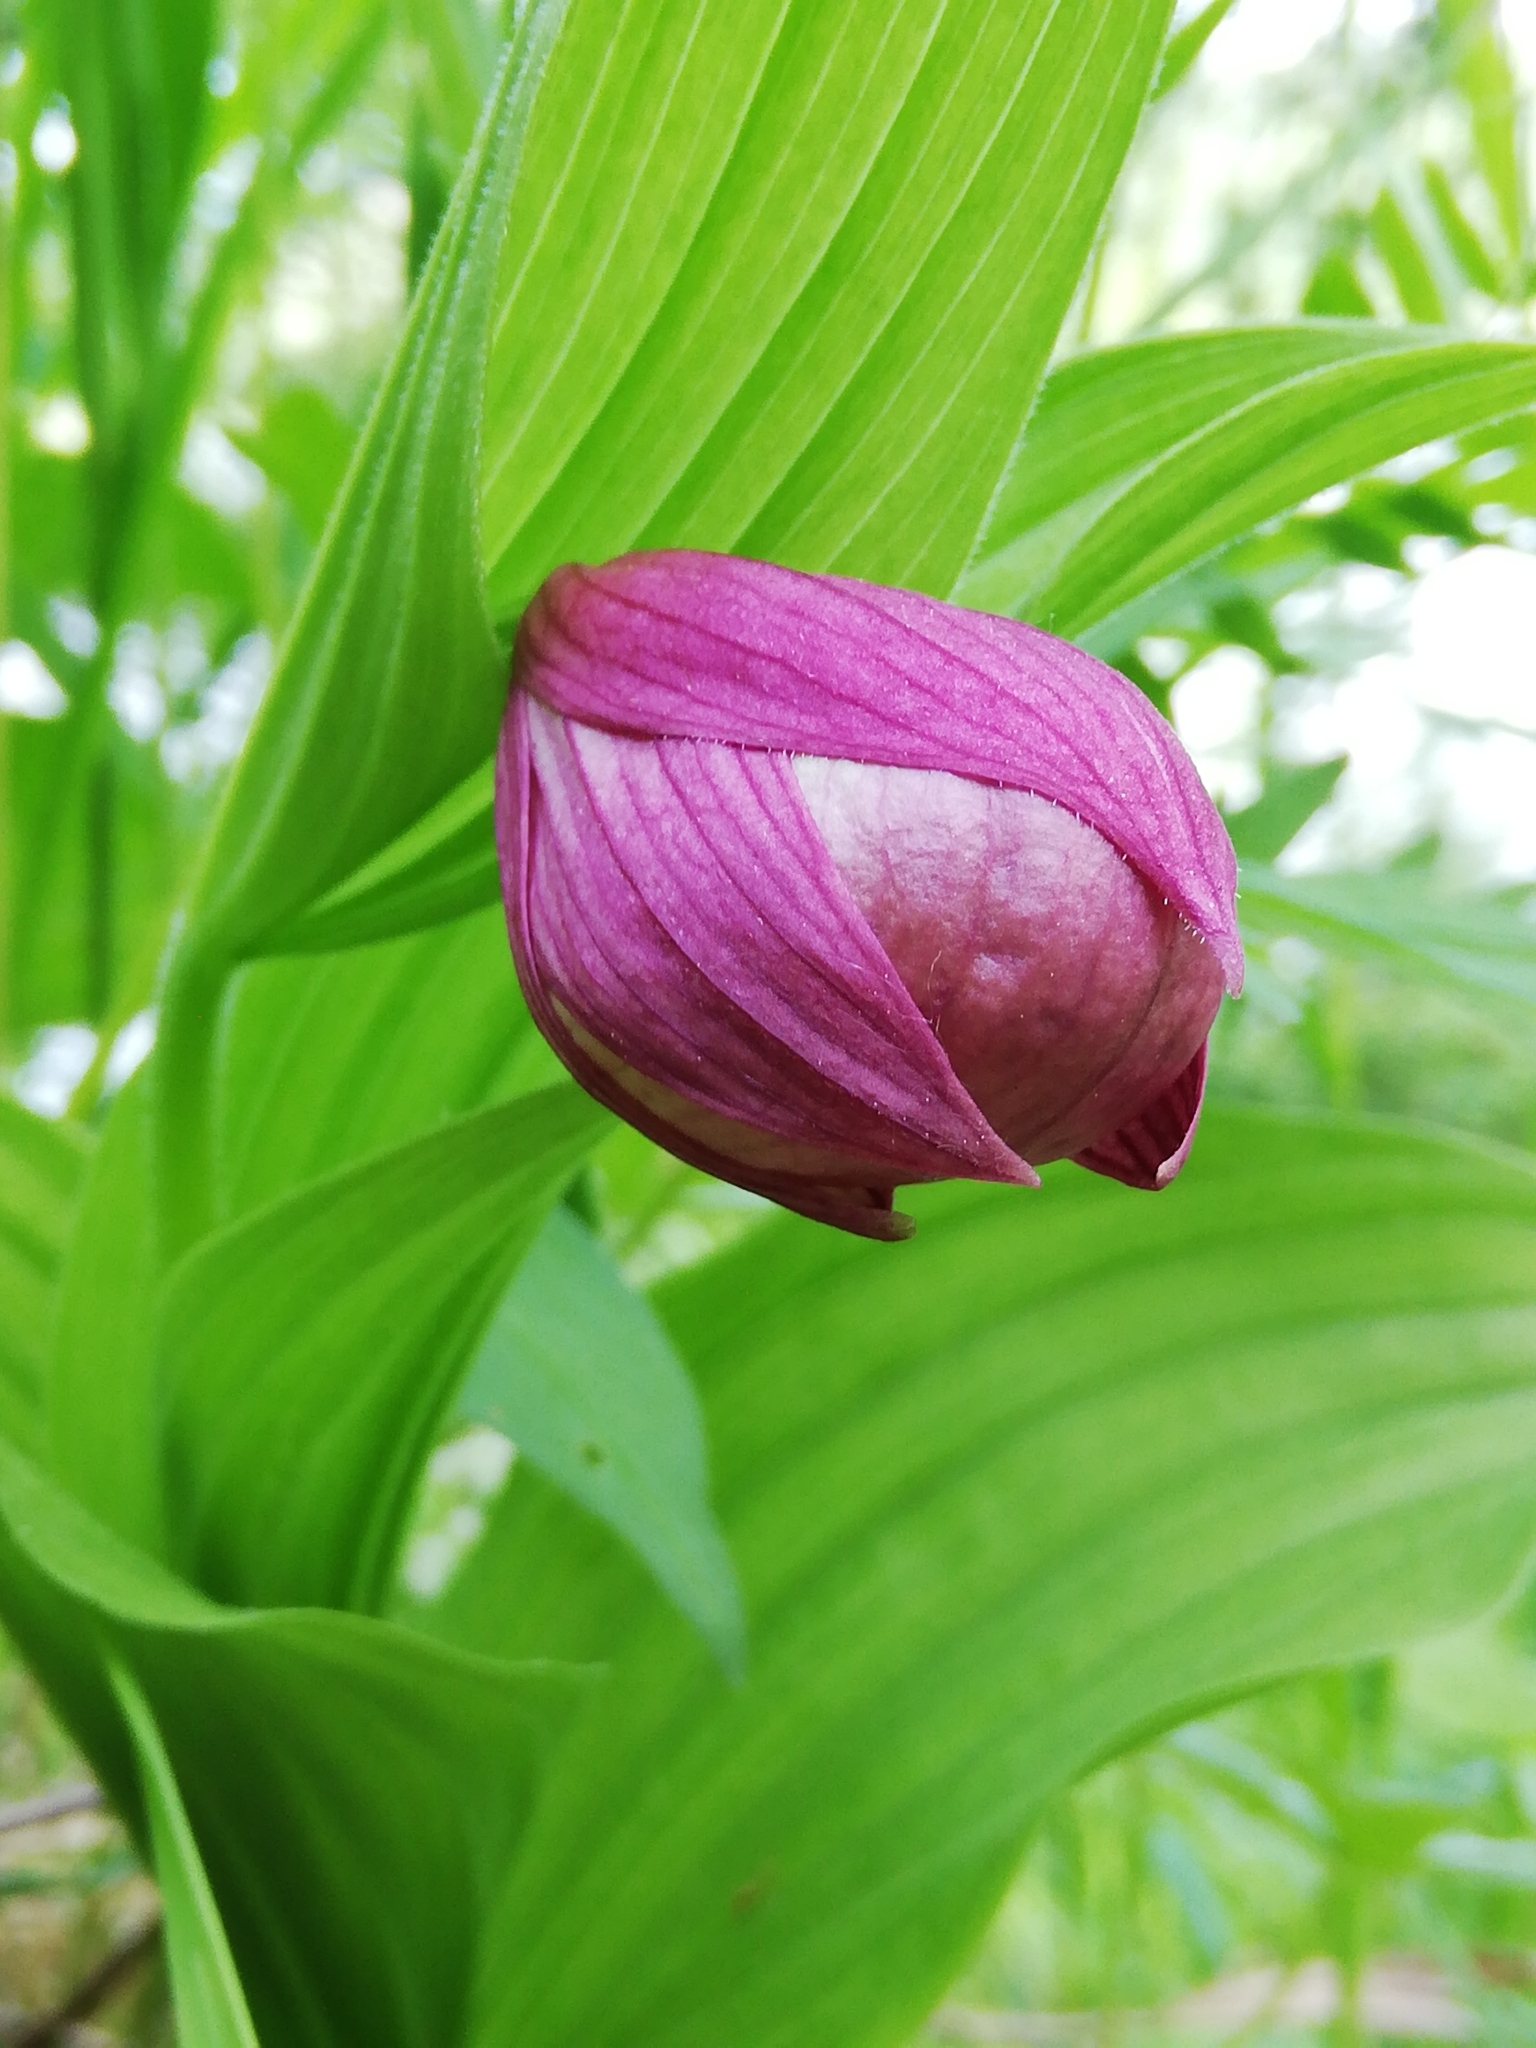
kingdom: Plantae
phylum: Tracheophyta
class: Liliopsida
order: Asparagales
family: Orchidaceae
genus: Cypripedium
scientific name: Cypripedium macranthos
